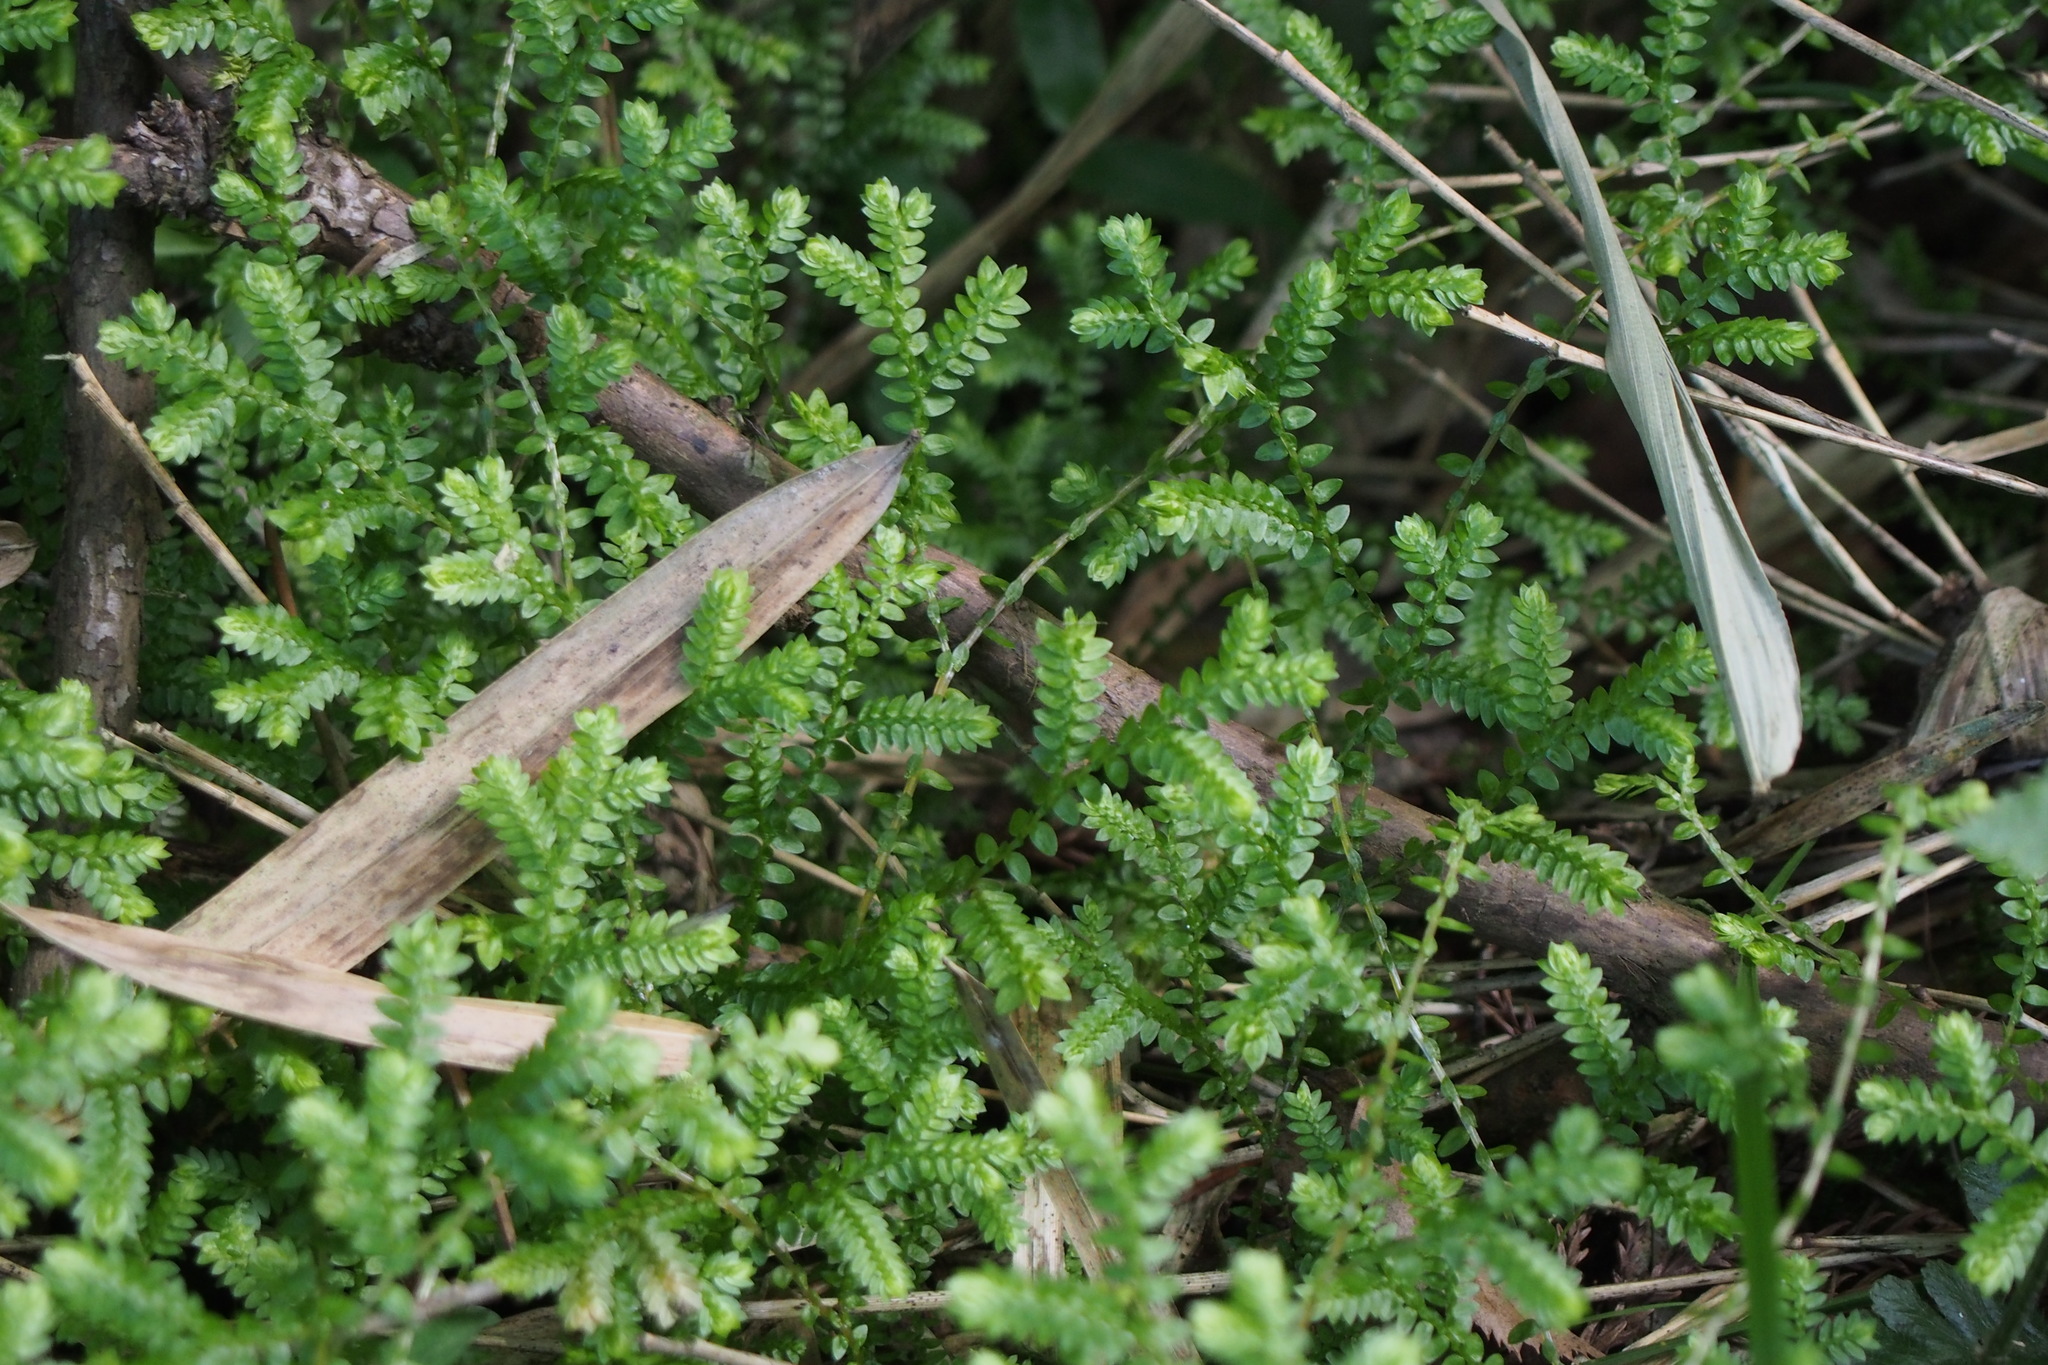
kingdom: Plantae
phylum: Tracheophyta
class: Lycopodiopsida
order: Selaginellales
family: Selaginellaceae
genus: Selaginella
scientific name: Selaginella remotifolia
